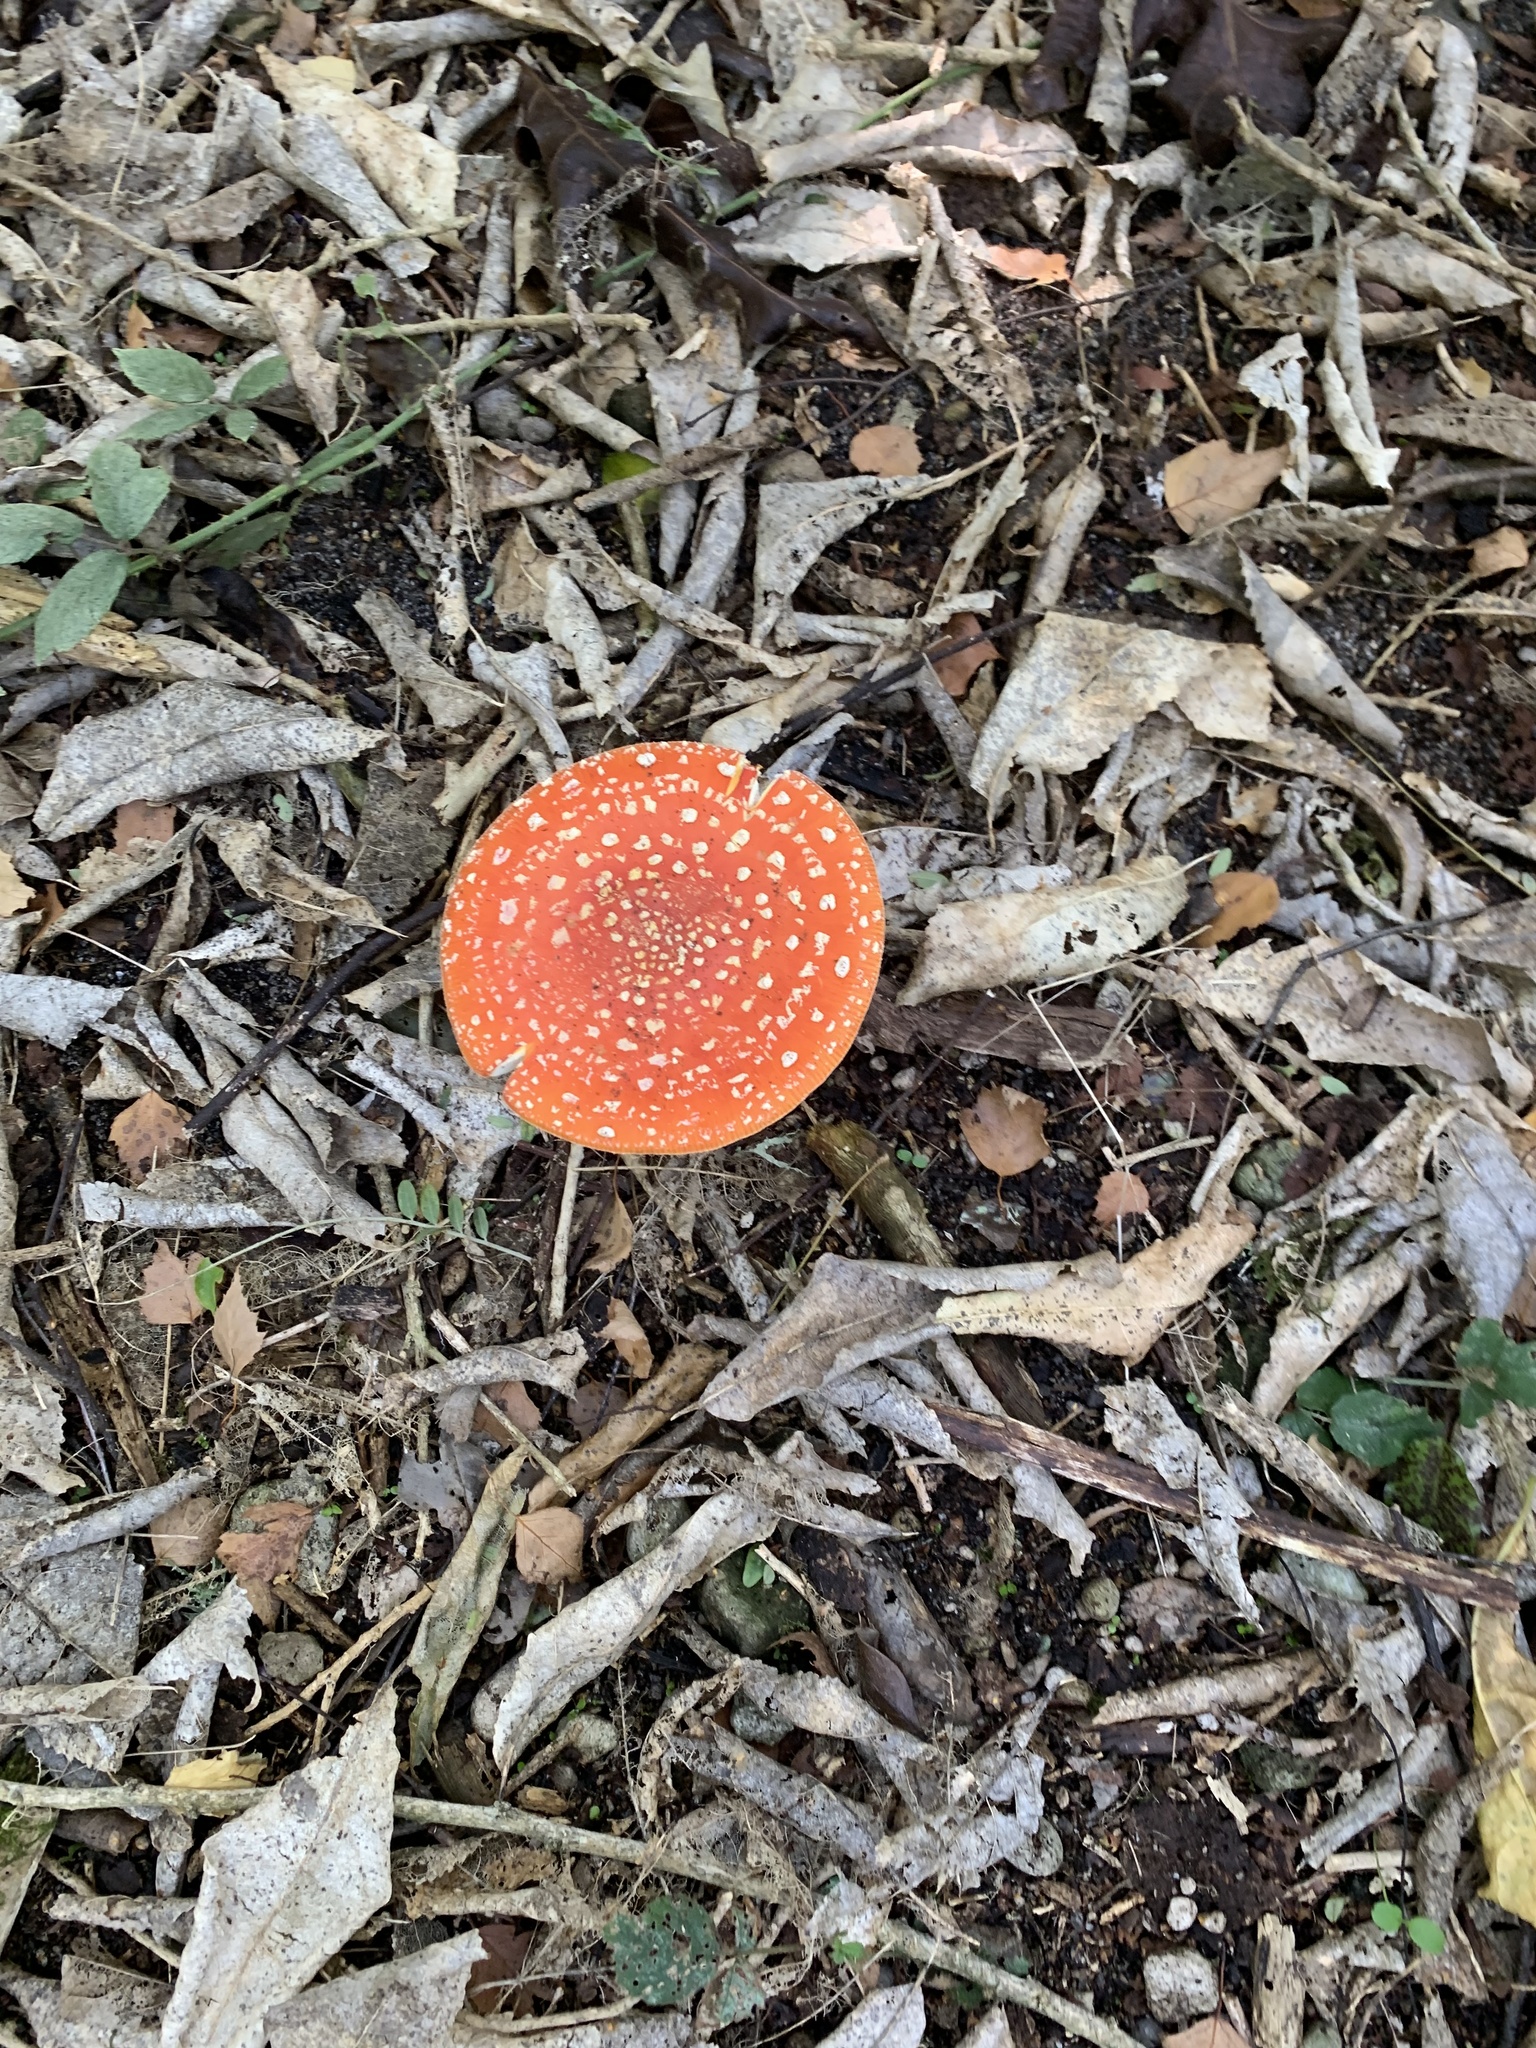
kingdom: Fungi
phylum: Basidiomycota
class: Agaricomycetes
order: Agaricales
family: Amanitaceae
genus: Amanita
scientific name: Amanita muscaria
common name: Fly agaric
